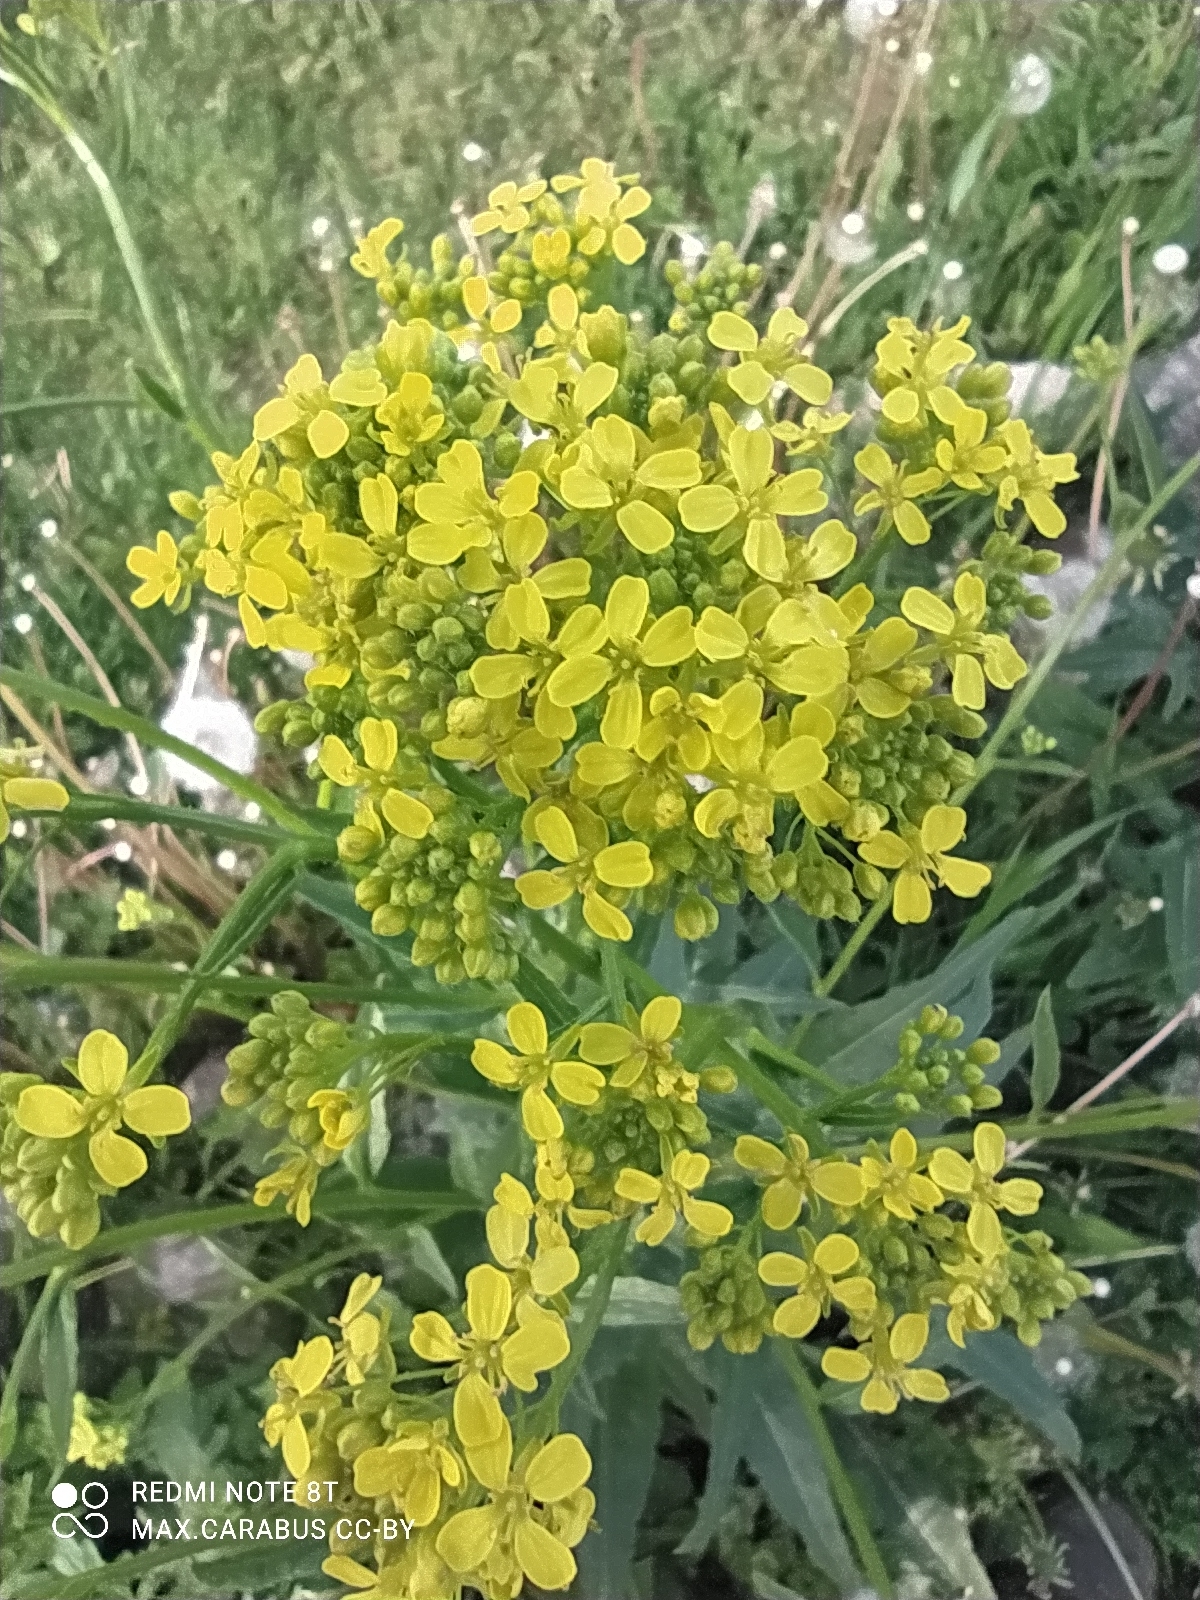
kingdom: Plantae
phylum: Tracheophyta
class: Magnoliopsida
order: Brassicales
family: Brassicaceae
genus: Bunias
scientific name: Bunias orientalis
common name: Warty-cabbage
